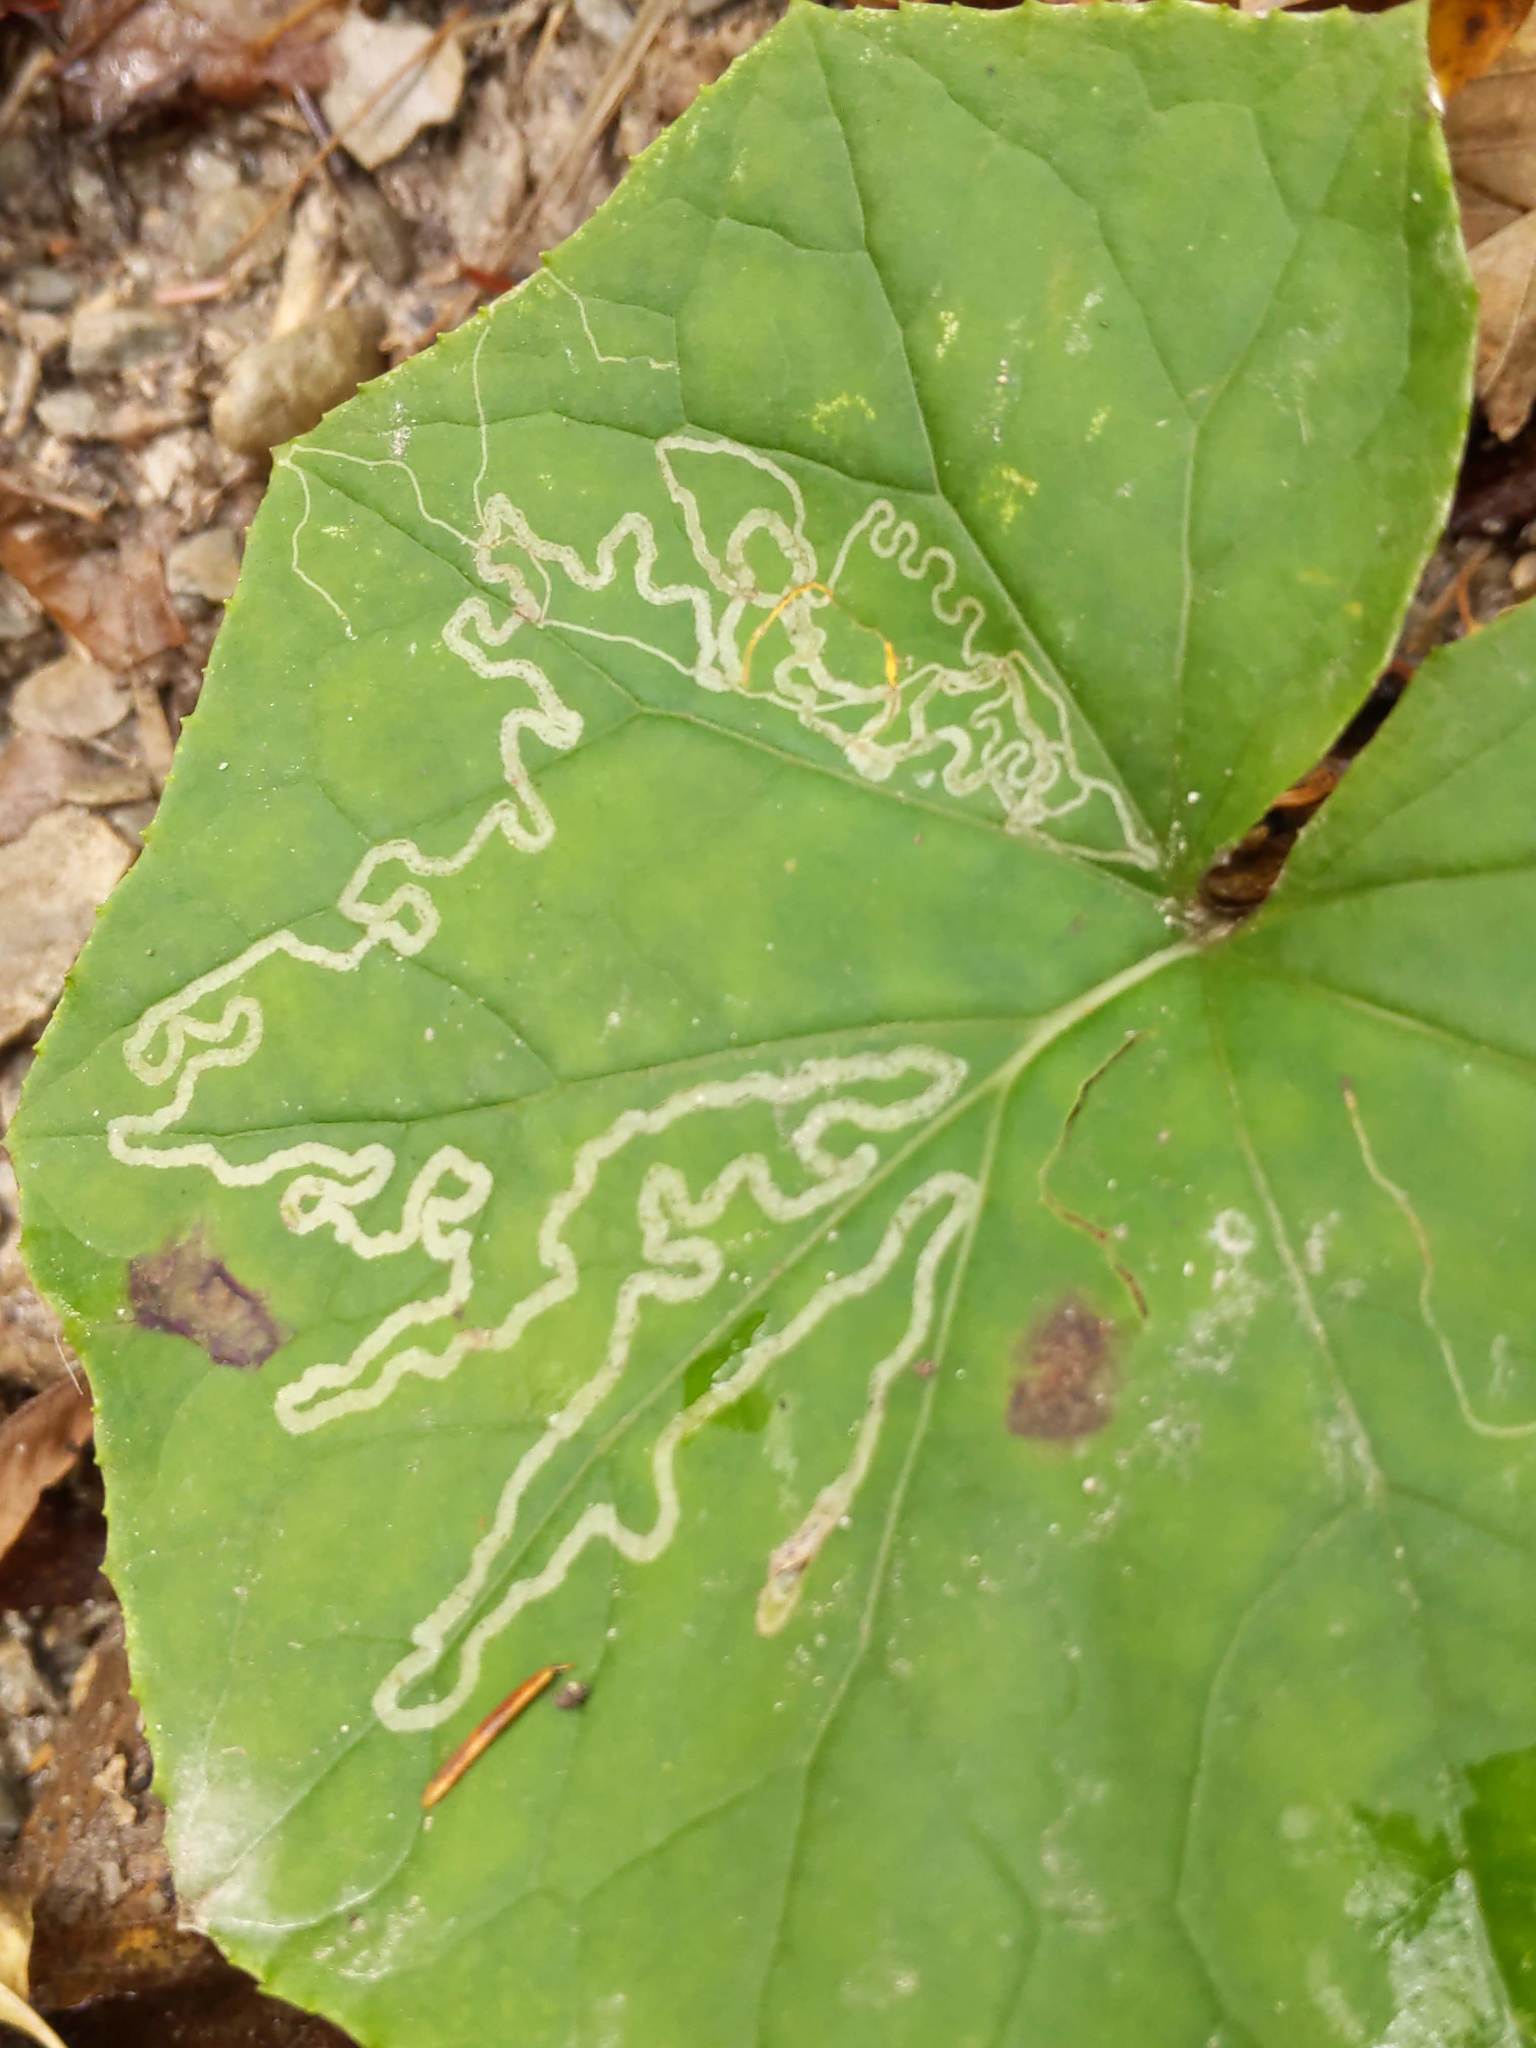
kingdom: Animalia
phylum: Arthropoda
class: Insecta
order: Lepidoptera
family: Gracillariidae
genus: Phyllocnistis
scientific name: Phyllocnistis insignis
